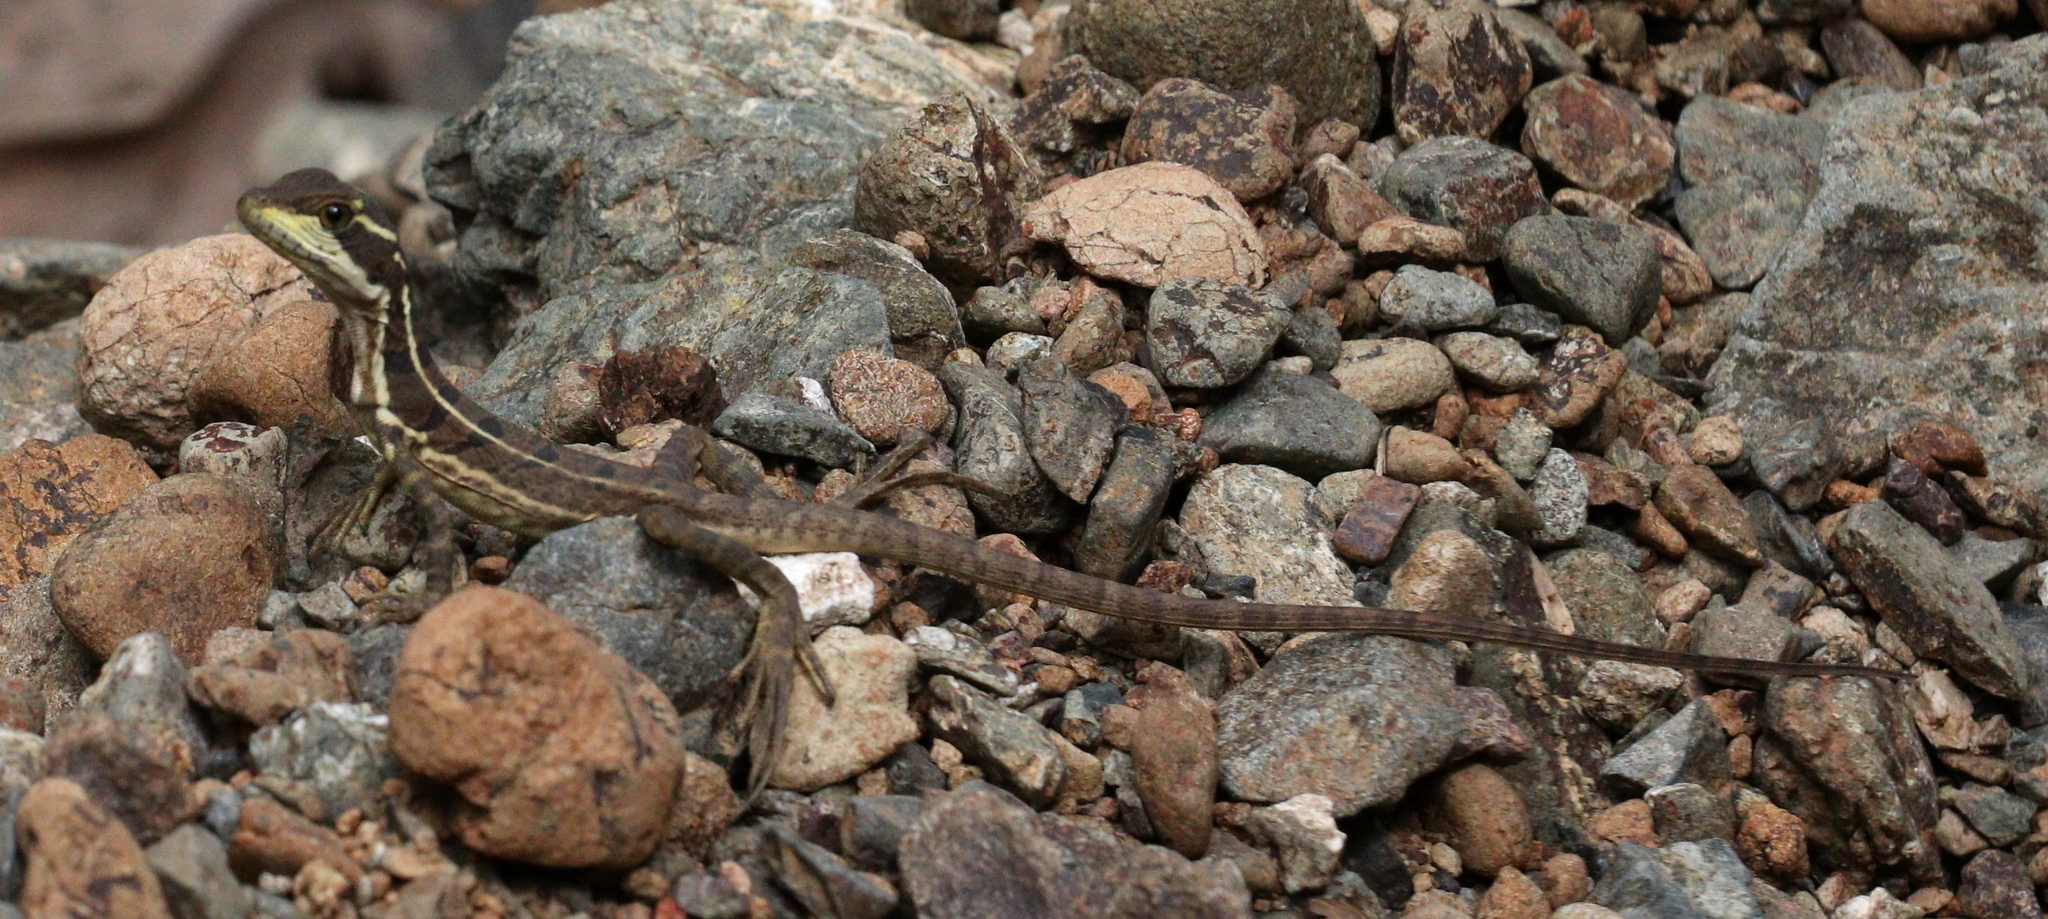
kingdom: Animalia
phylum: Chordata
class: Squamata
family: Corytophanidae
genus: Basiliscus
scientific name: Basiliscus basiliscus
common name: Common basilisk
